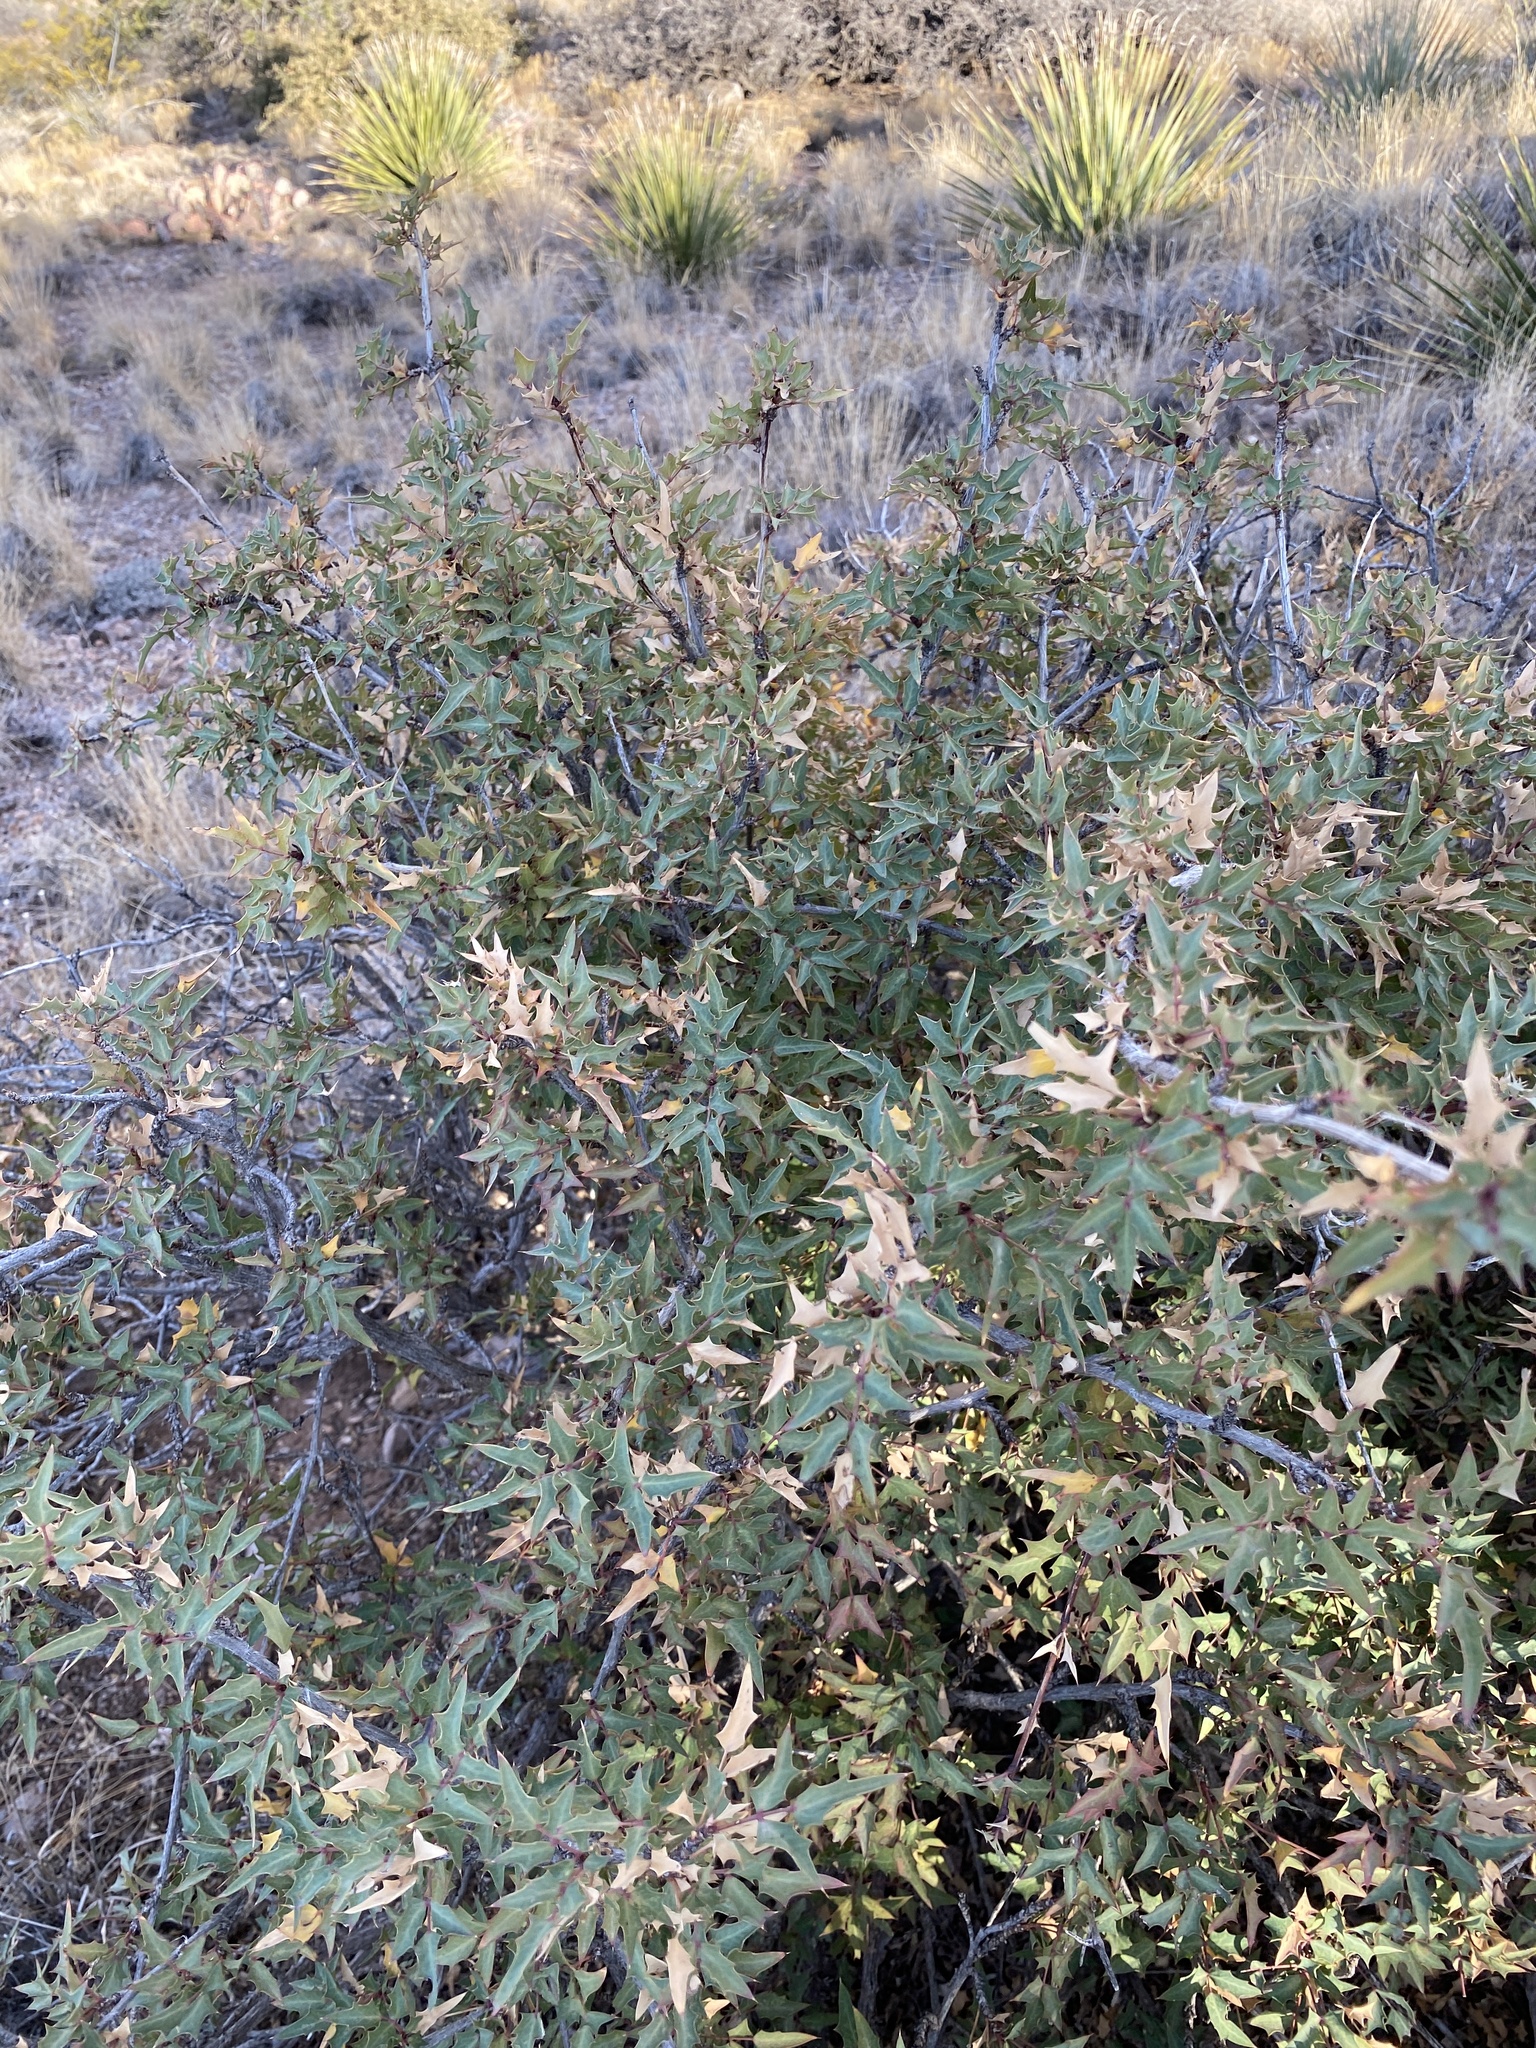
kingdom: Plantae
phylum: Tracheophyta
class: Magnoliopsida
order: Ranunculales
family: Berberidaceae
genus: Alloberberis
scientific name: Alloberberis haematocarpa
